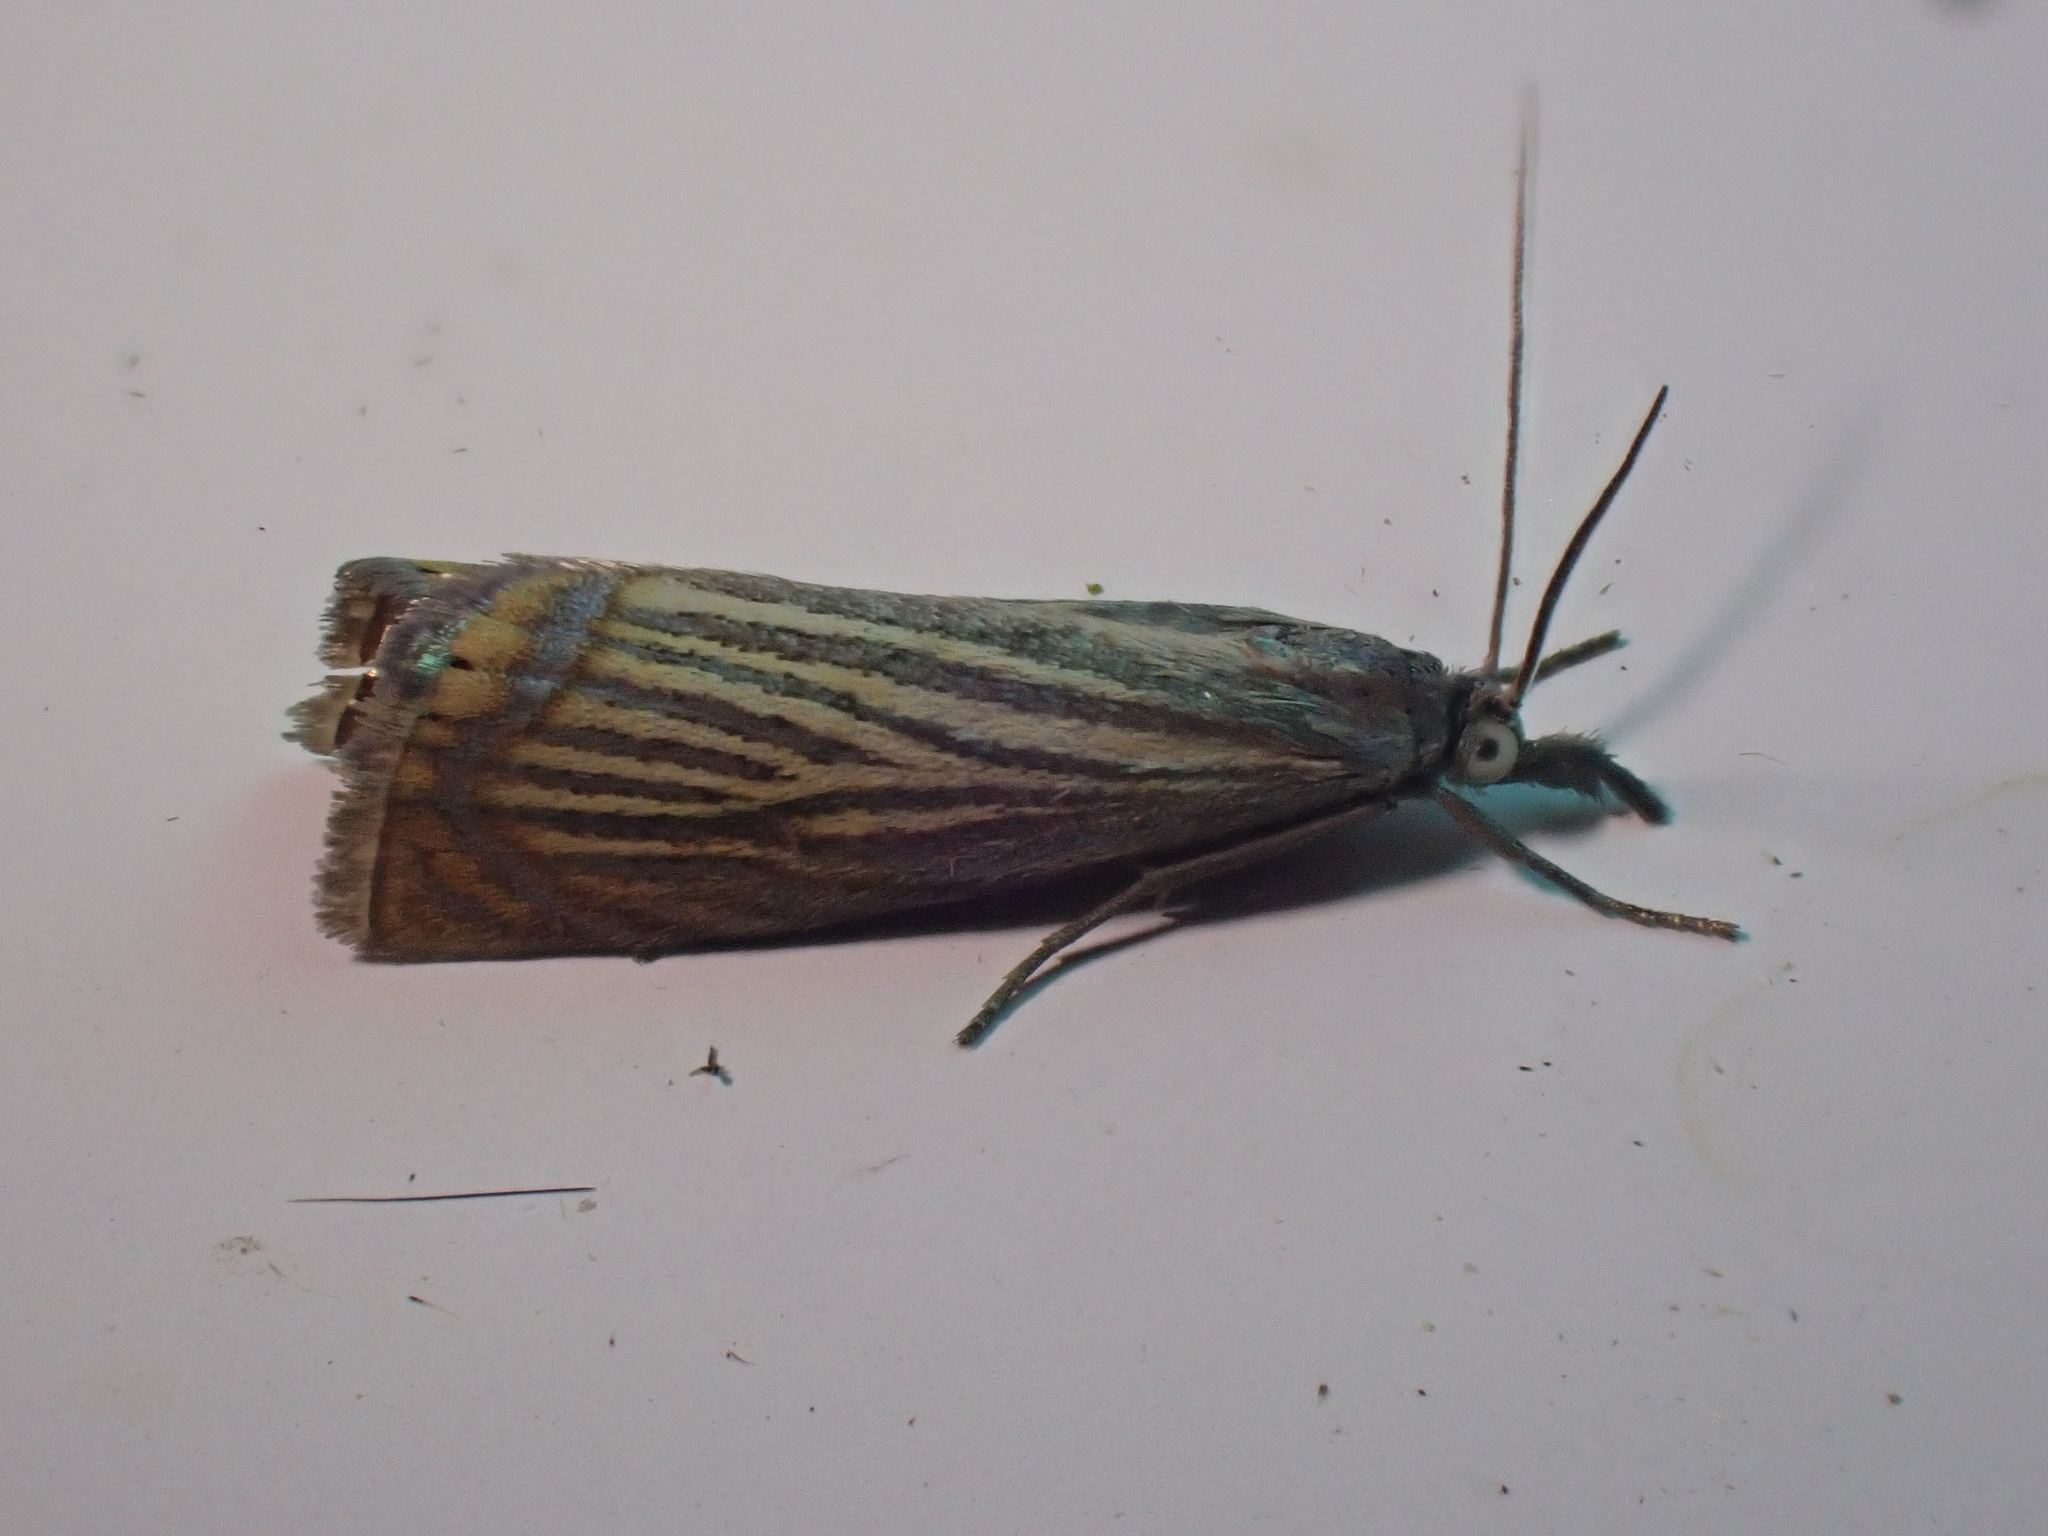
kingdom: Animalia
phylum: Arthropoda
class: Insecta
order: Lepidoptera
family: Crambidae
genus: Chrysoteuchia
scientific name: Chrysoteuchia culmella
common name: Garden grass-veneer
